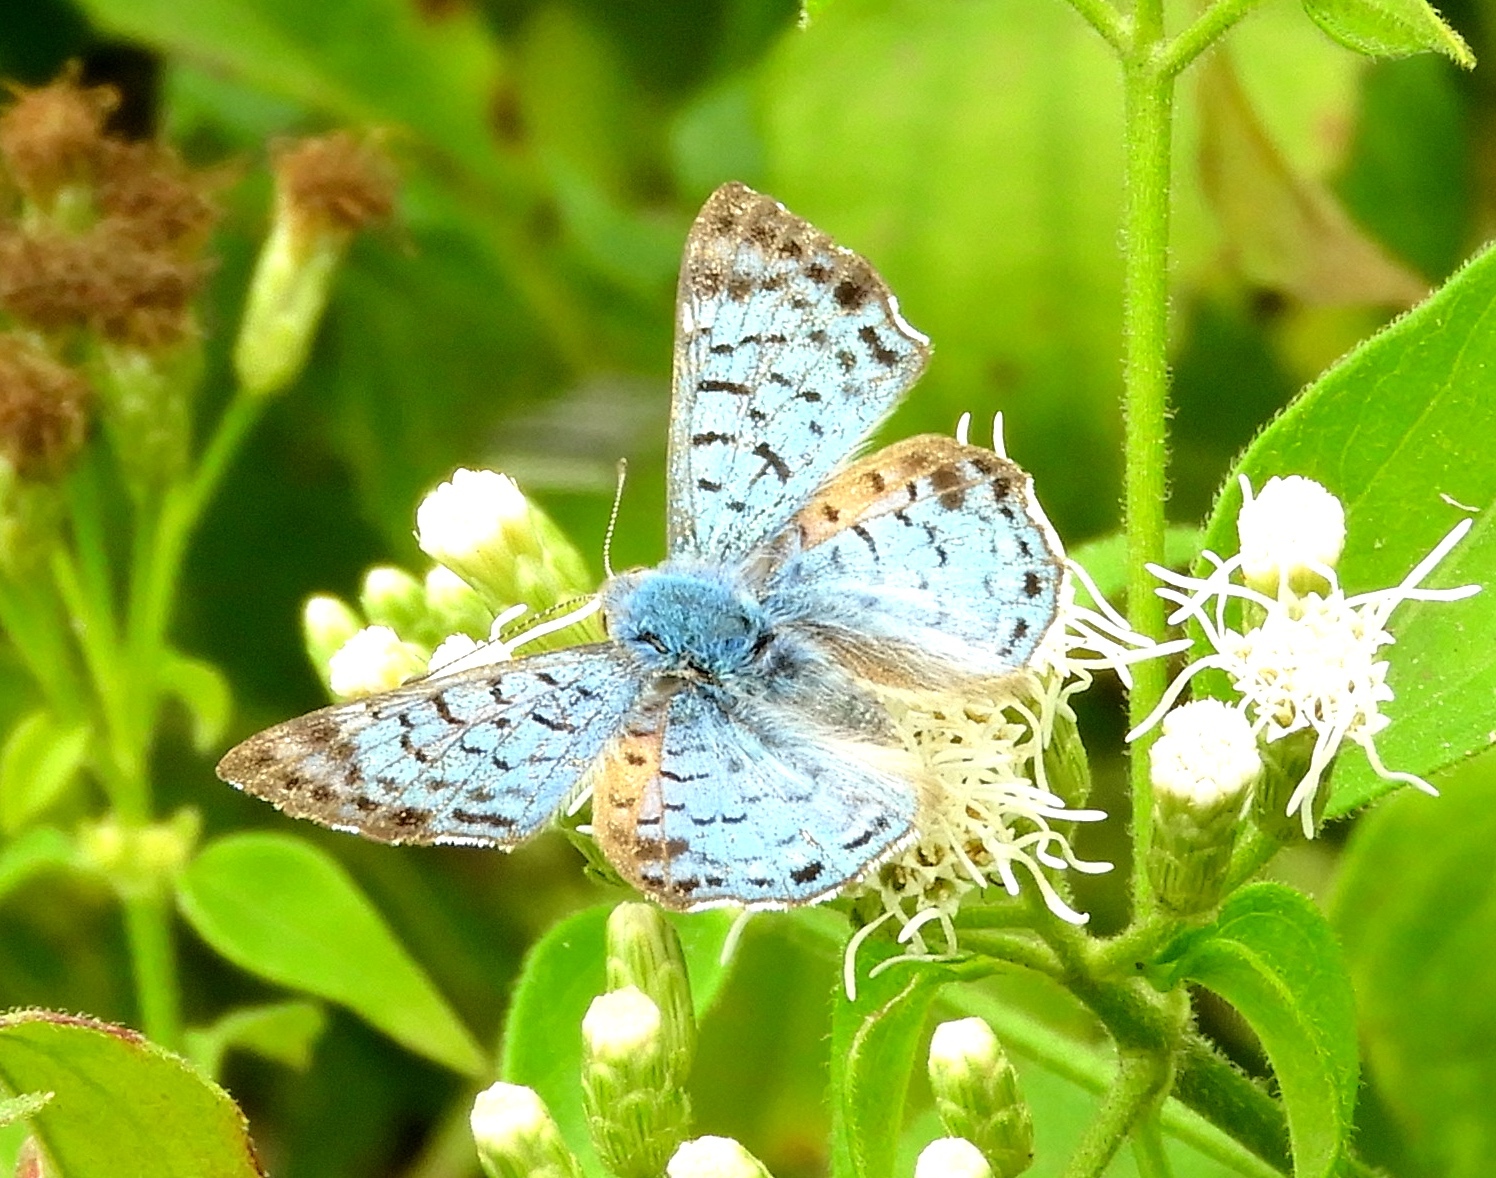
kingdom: Animalia
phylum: Arthropoda
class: Insecta
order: Lepidoptera
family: Riodinidae
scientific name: Riodinidae
